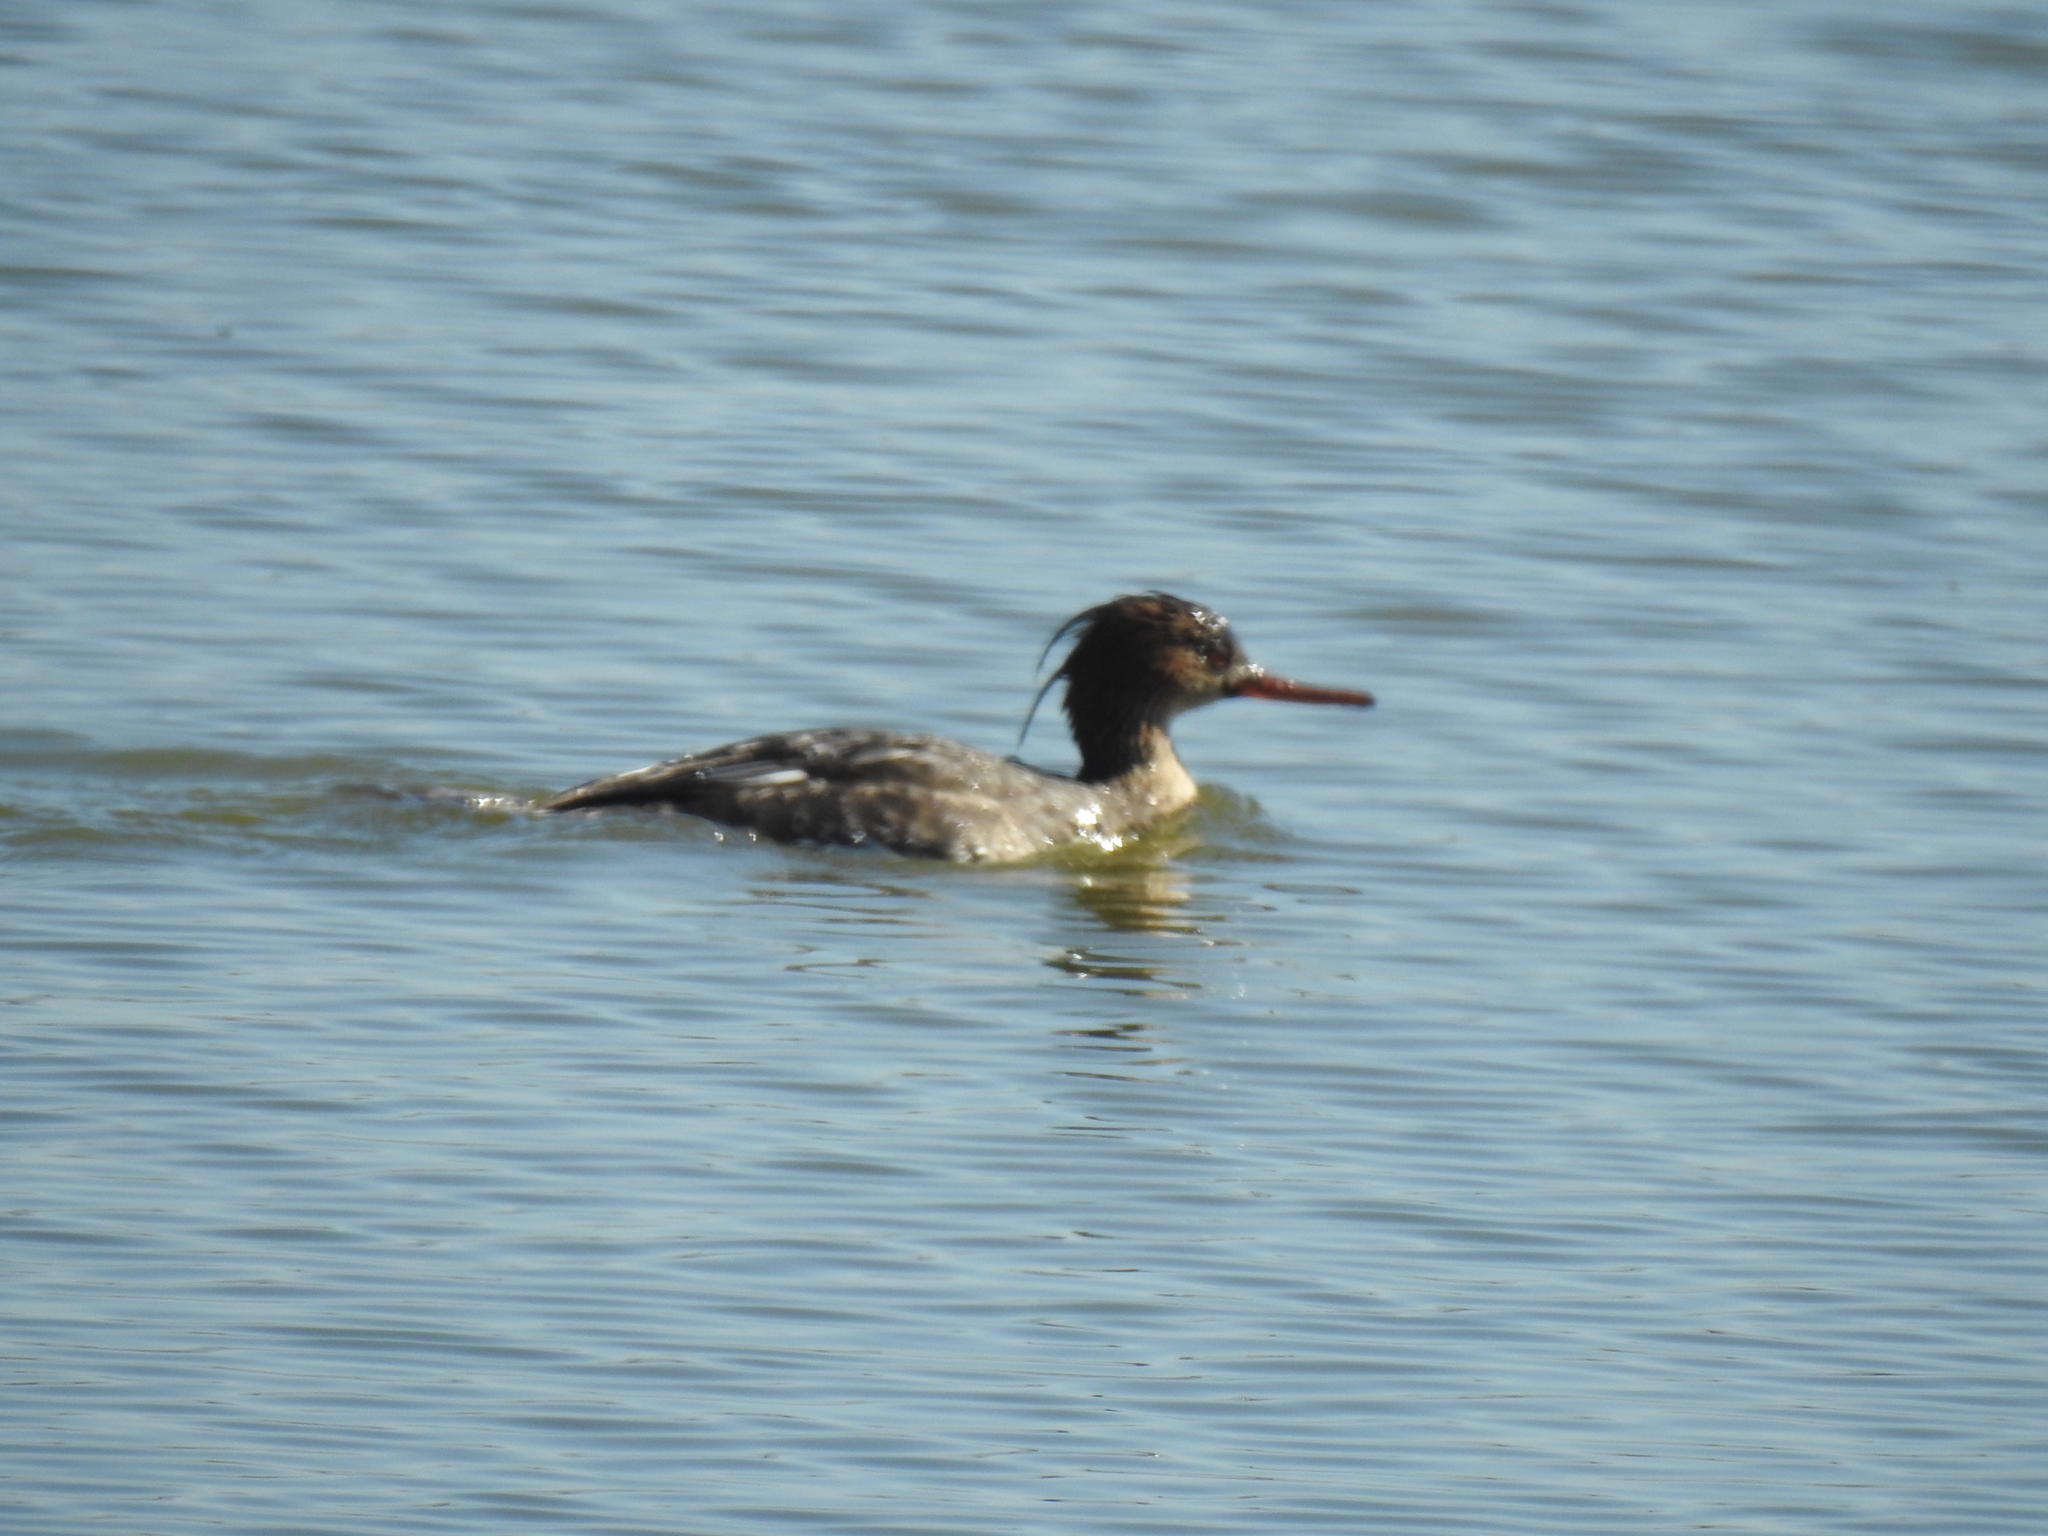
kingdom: Animalia
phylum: Chordata
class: Aves
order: Anseriformes
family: Anatidae
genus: Mergus
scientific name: Mergus serrator
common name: Red-breasted merganser
